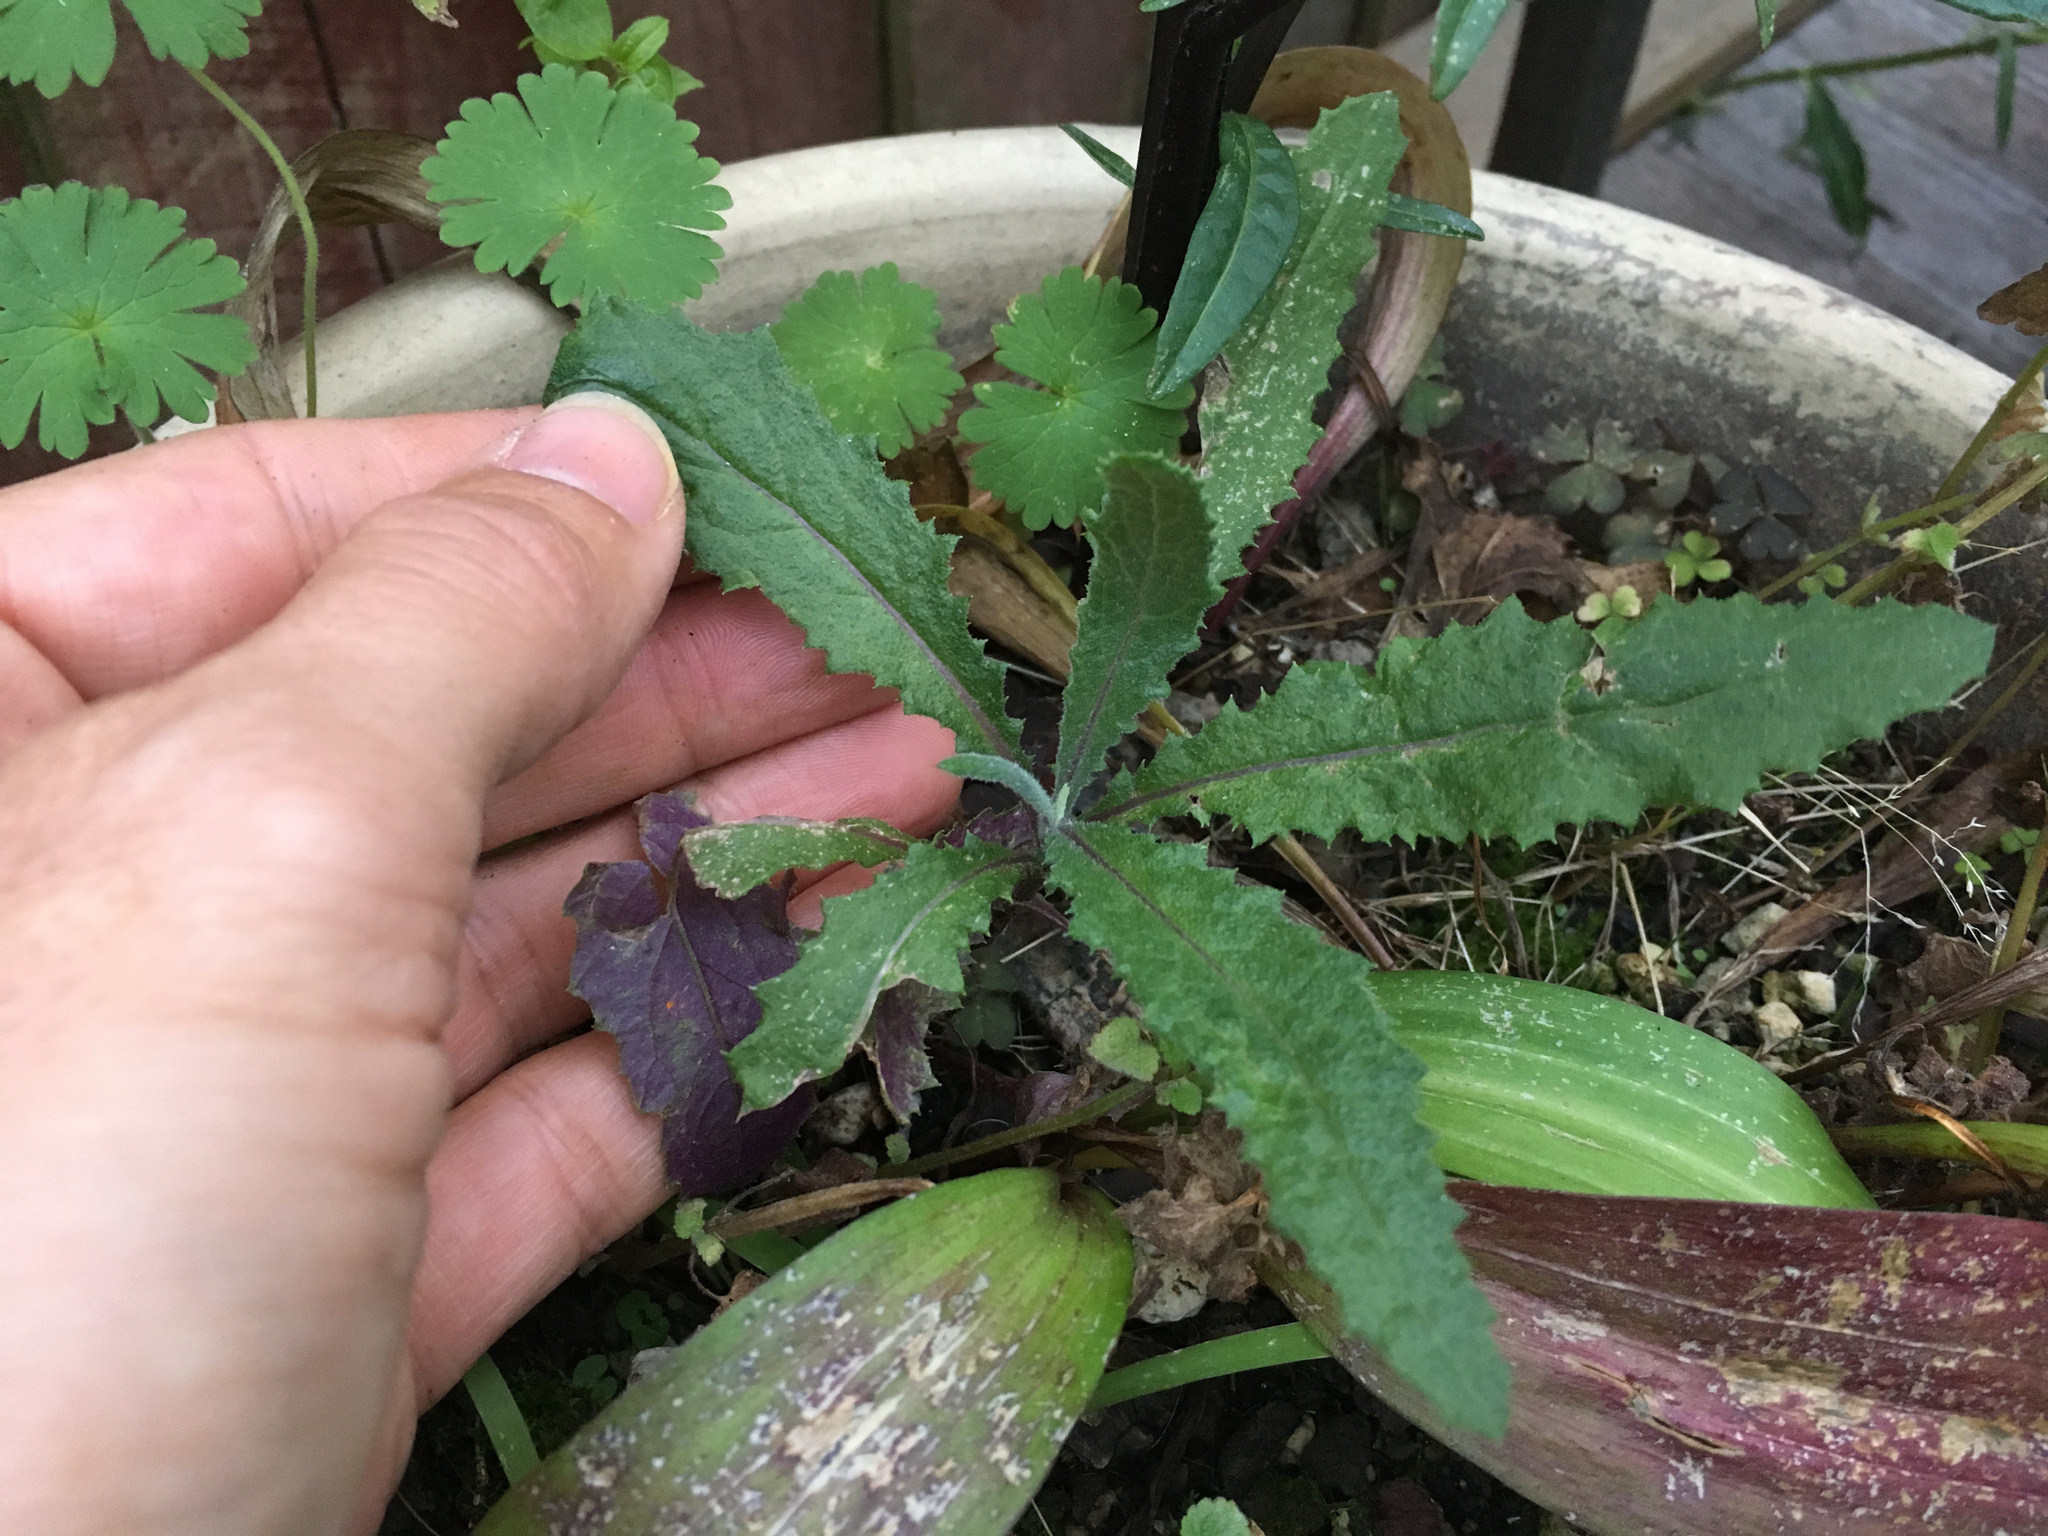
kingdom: Plantae
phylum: Tracheophyta
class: Magnoliopsida
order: Asterales
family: Asteraceae
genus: Senecio
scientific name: Senecio minimus
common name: Toothed fireweed
